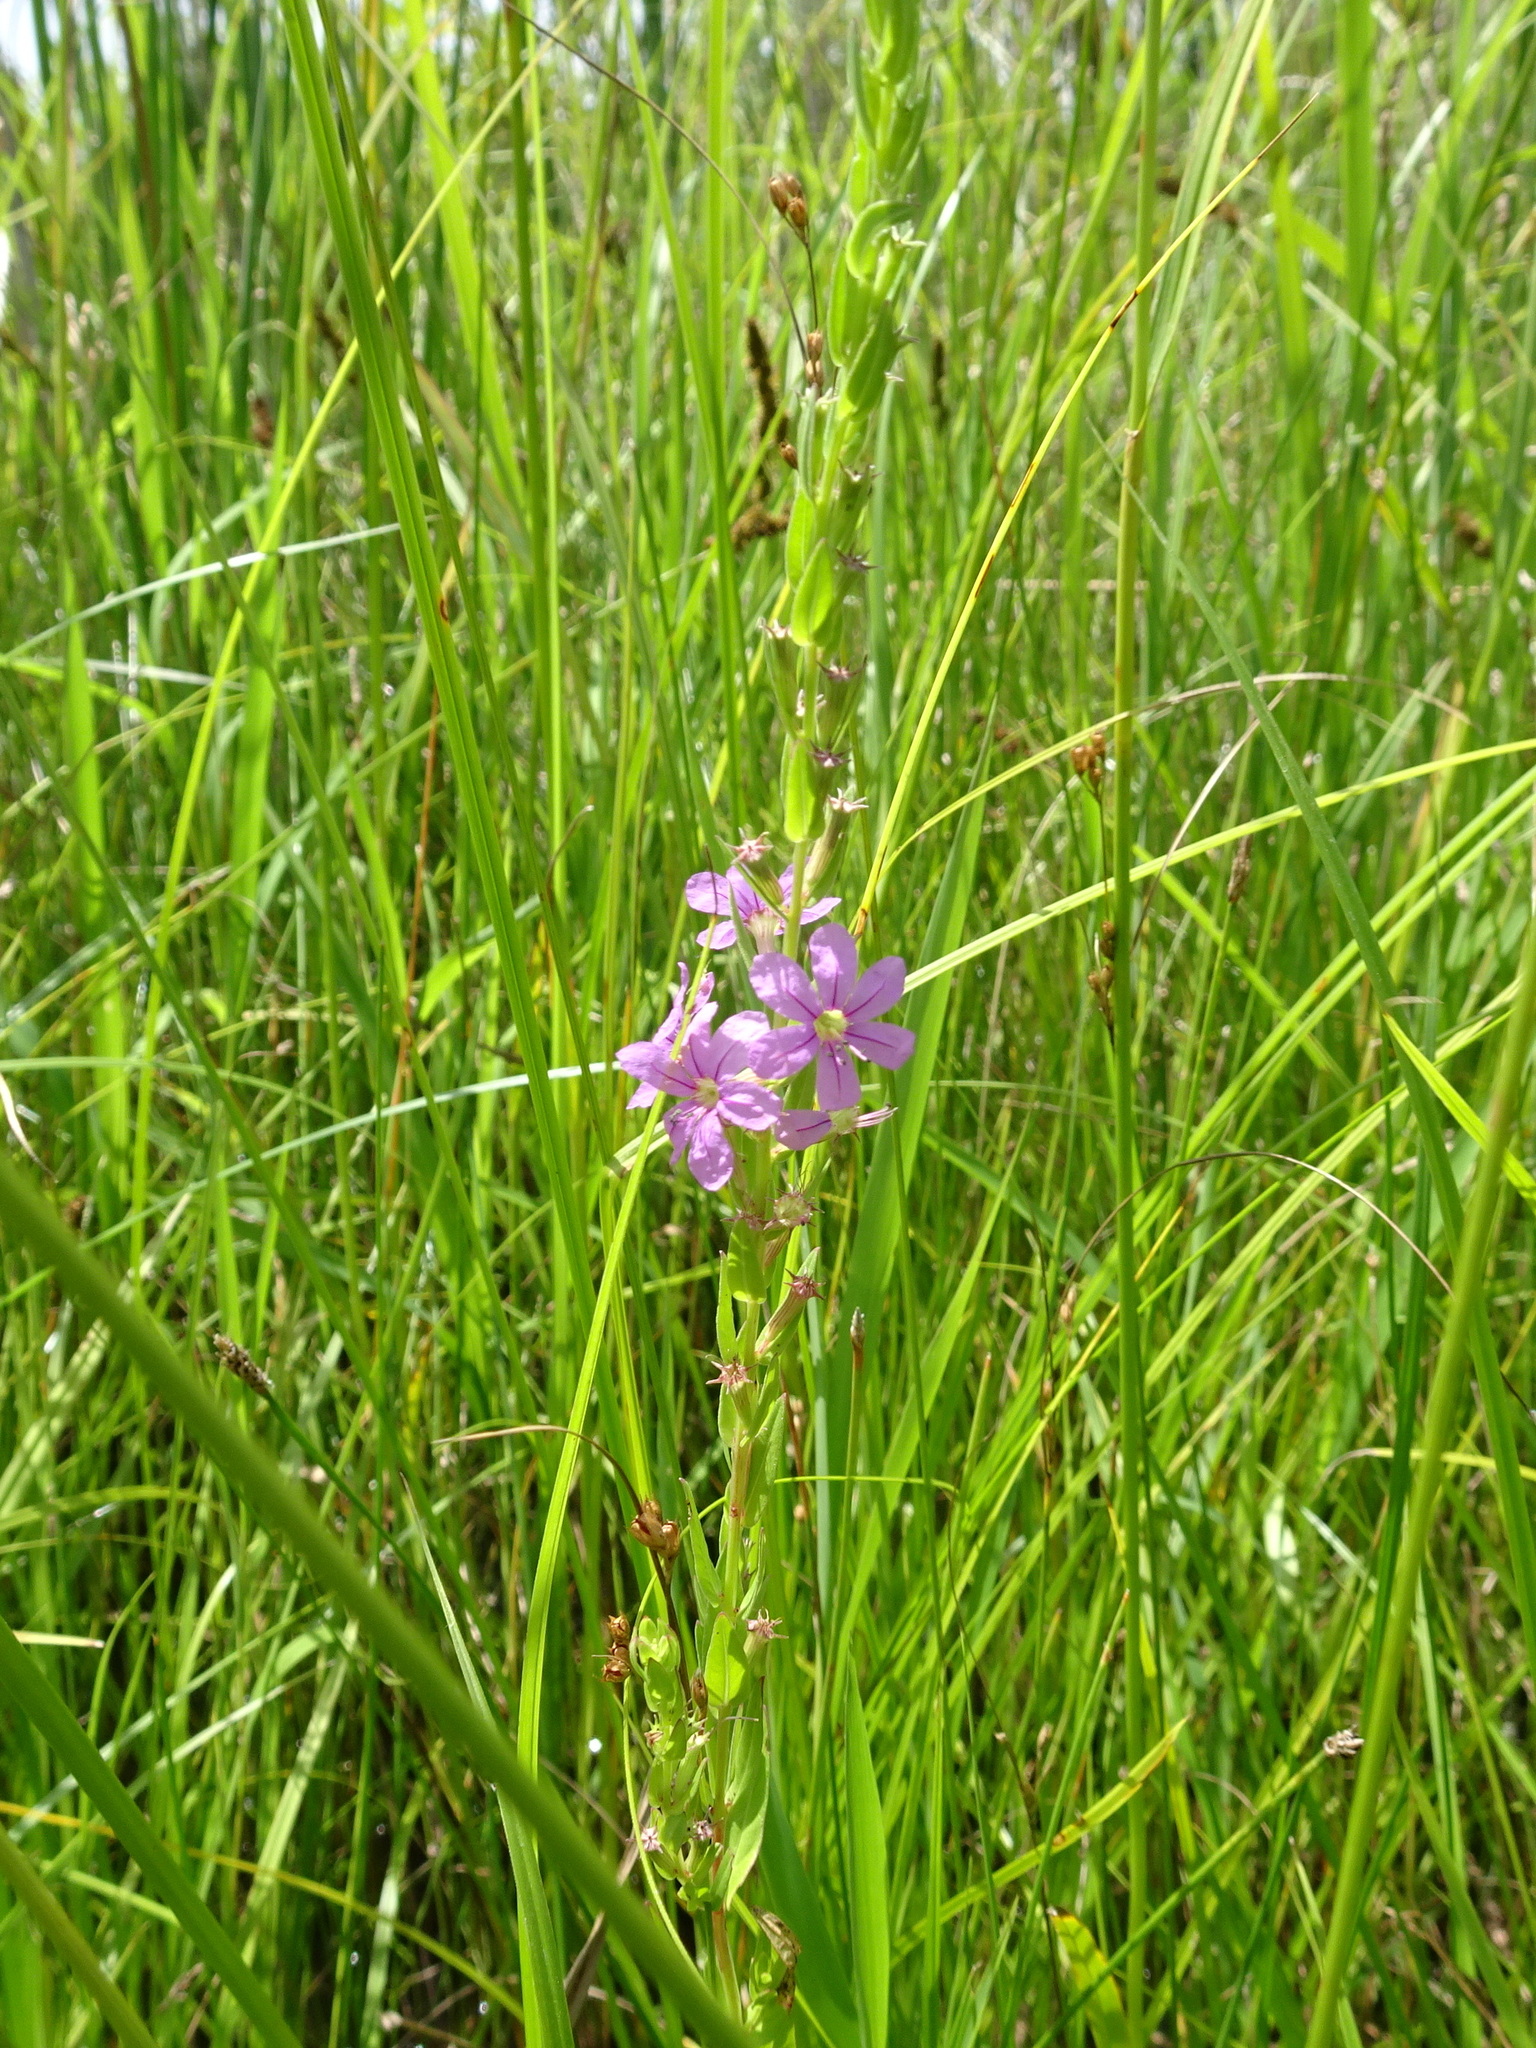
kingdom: Plantae
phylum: Tracheophyta
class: Magnoliopsida
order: Myrtales
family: Lythraceae
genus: Lythrum
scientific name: Lythrum alatum
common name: Winged loosestrife
